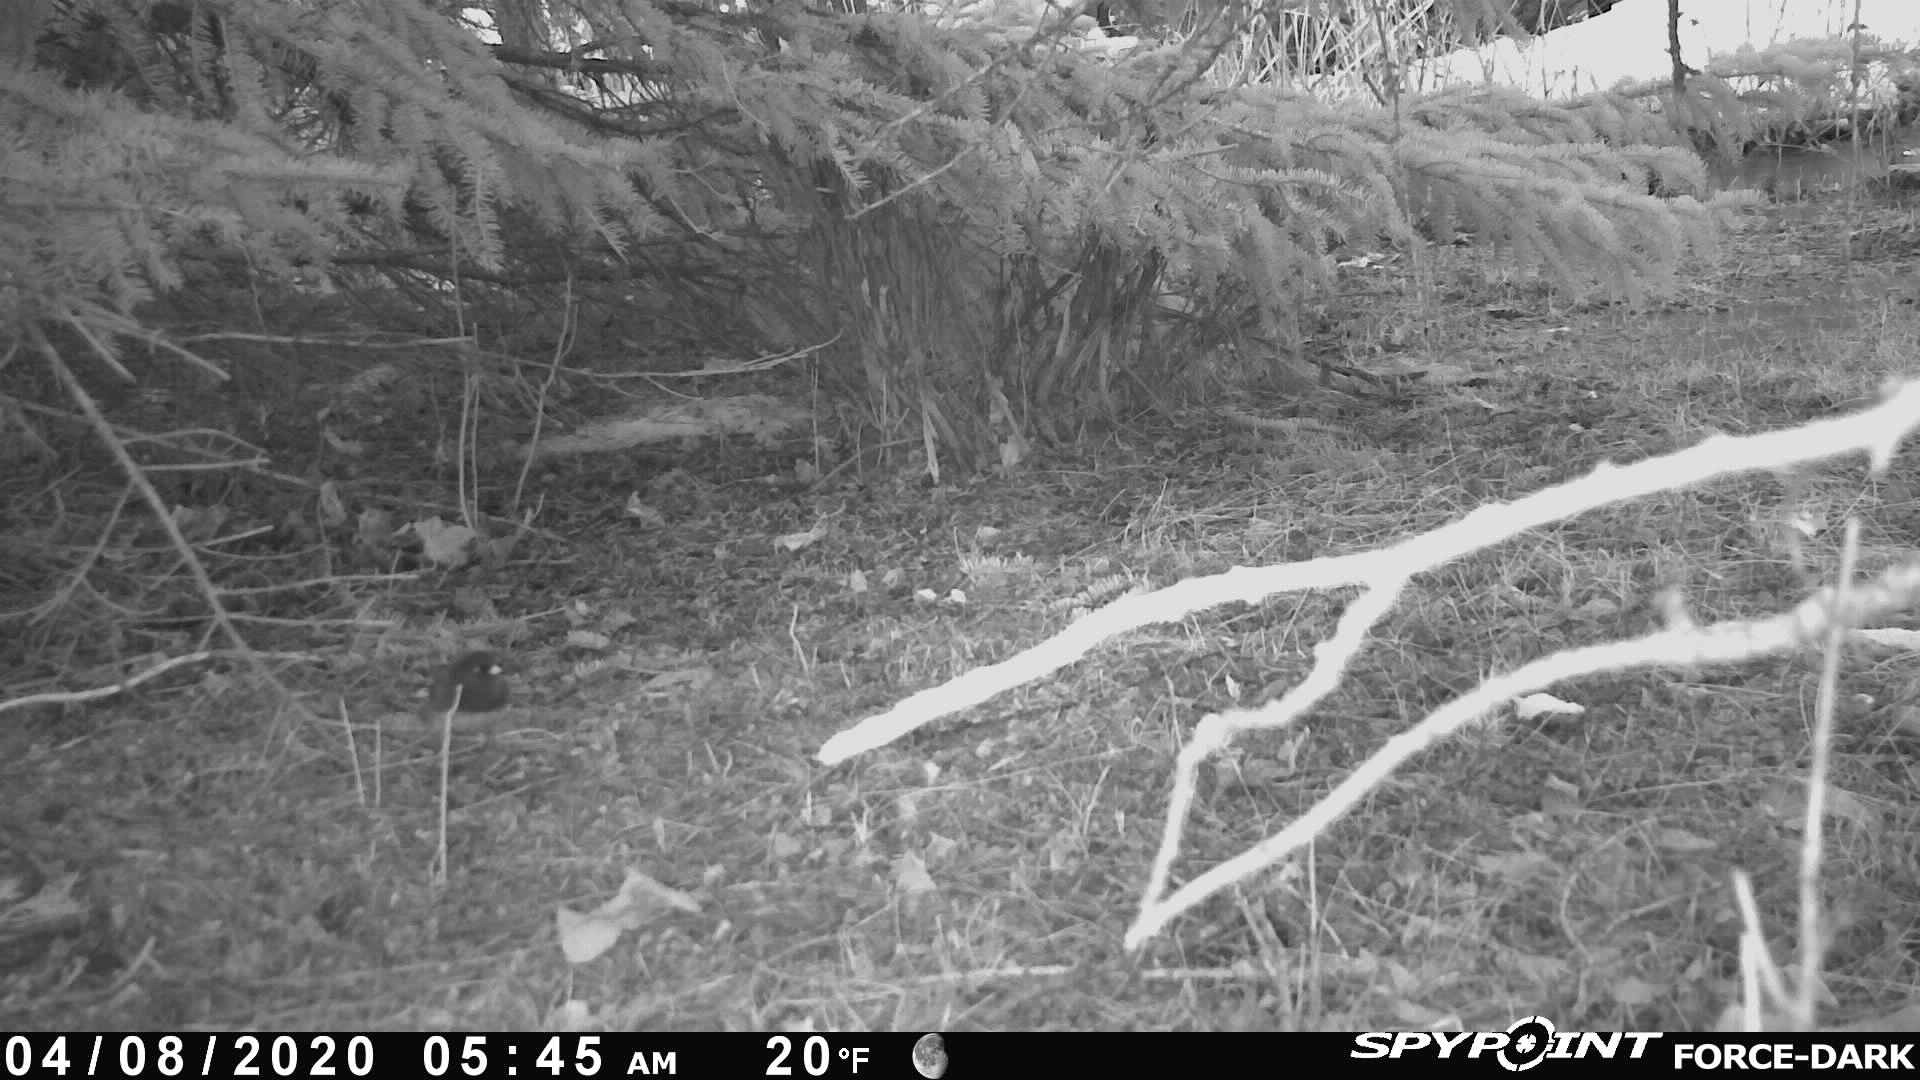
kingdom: Animalia
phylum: Chordata
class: Aves
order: Passeriformes
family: Passerellidae
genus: Junco
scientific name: Junco hyemalis
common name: Dark-eyed junco
